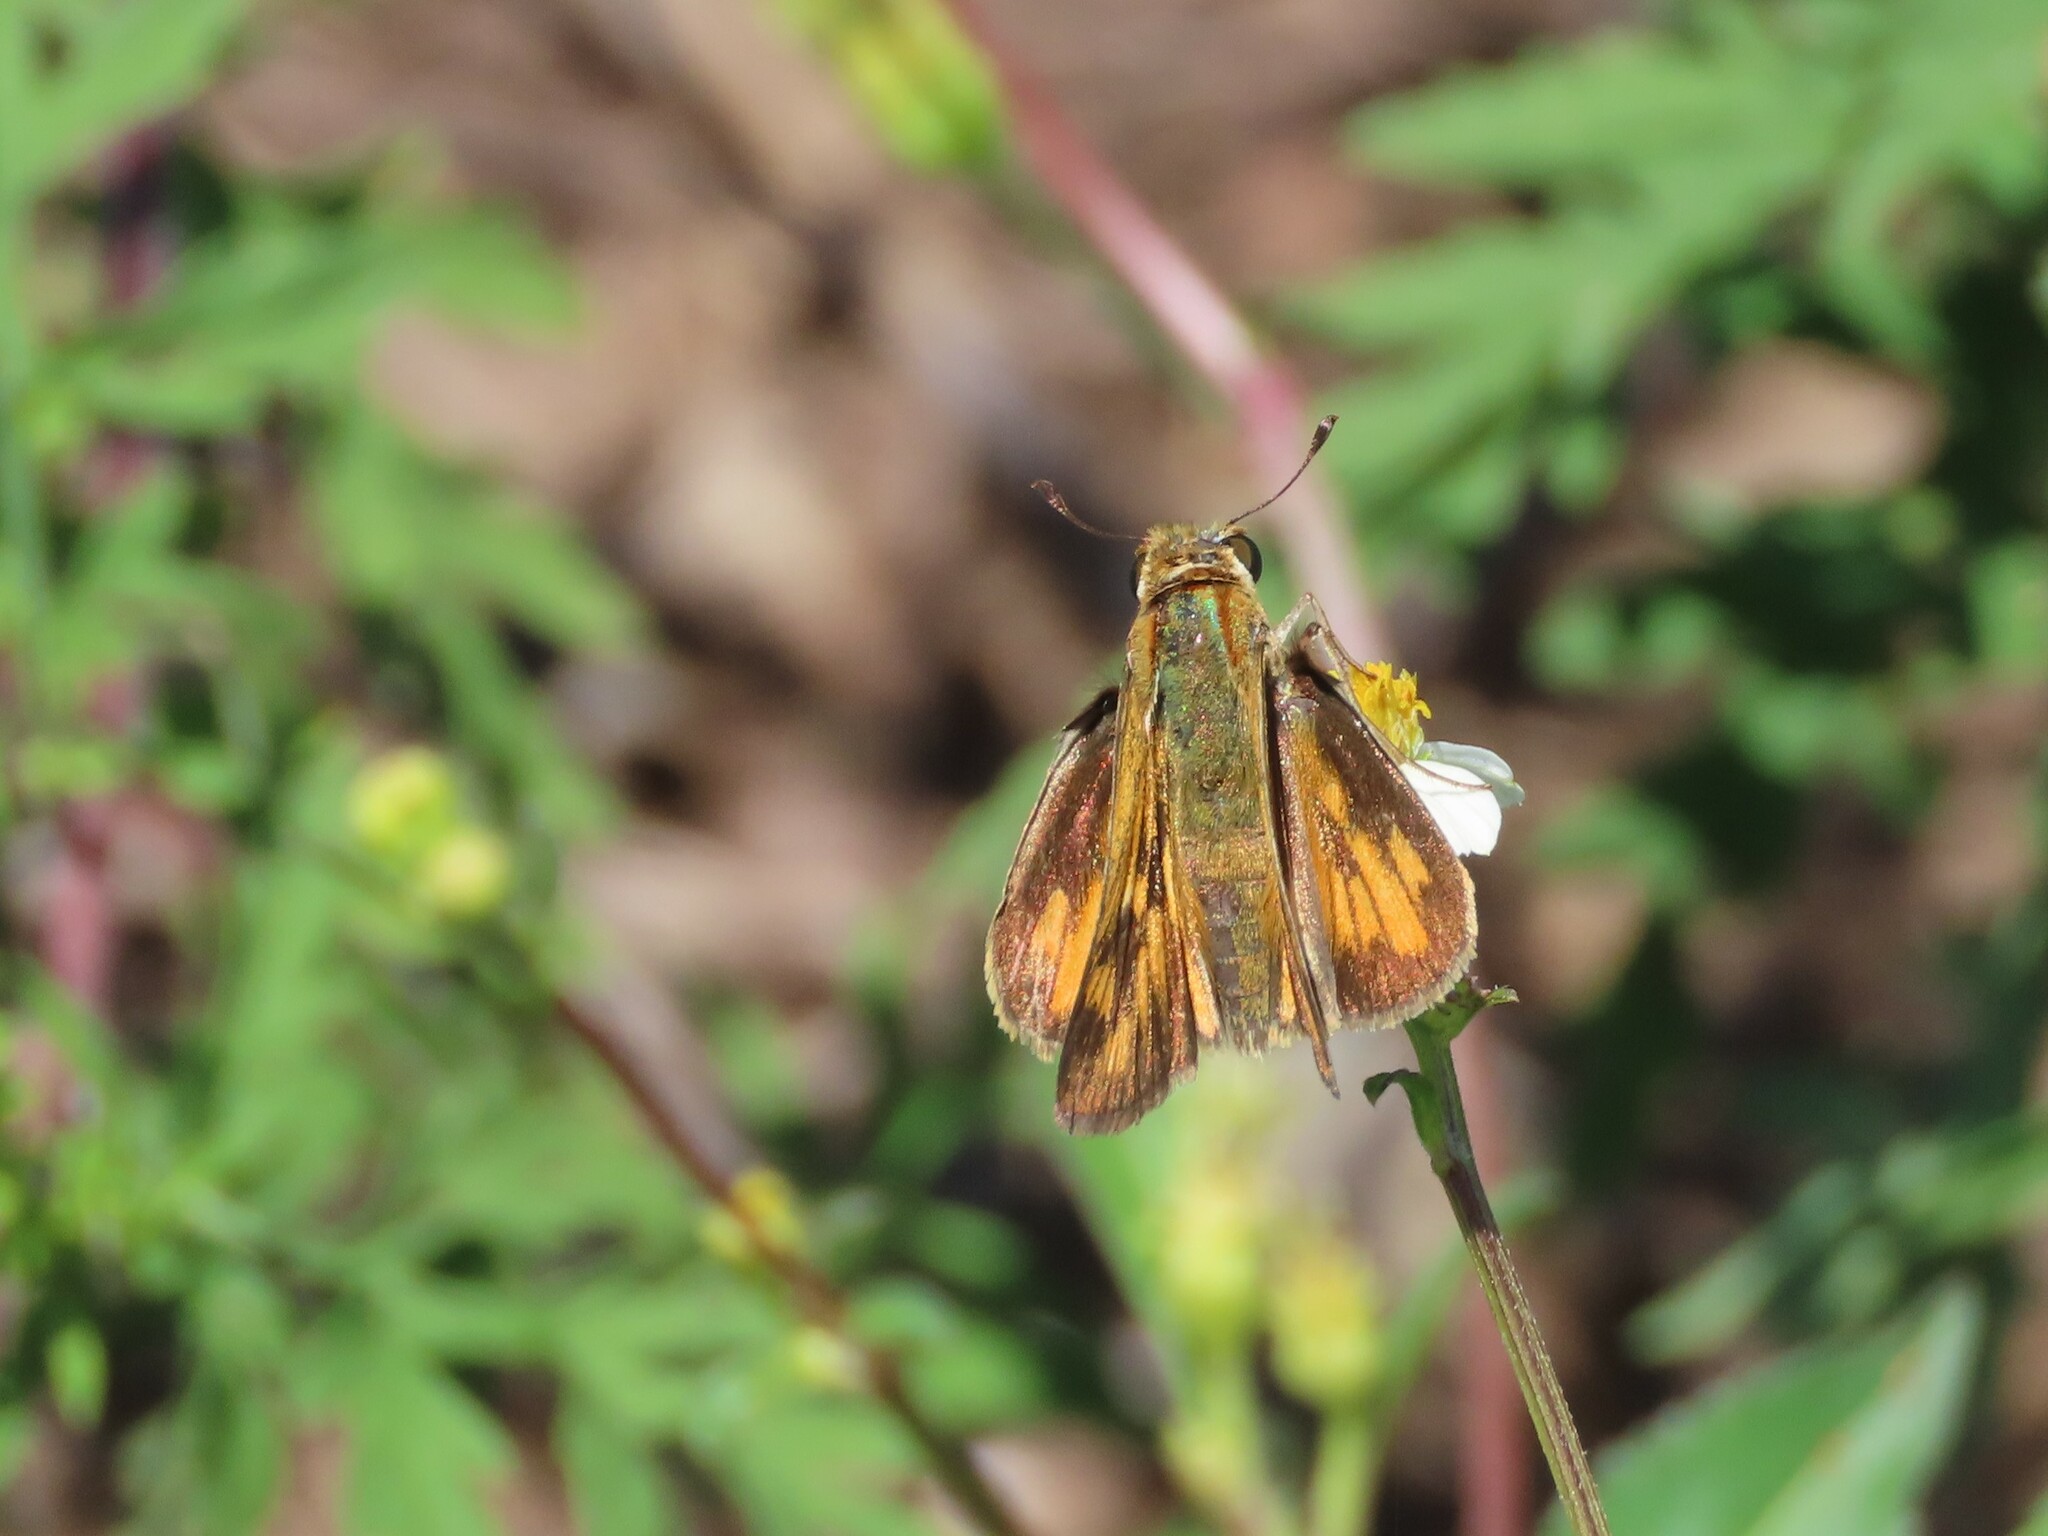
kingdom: Animalia
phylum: Arthropoda
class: Insecta
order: Lepidoptera
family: Hesperiidae
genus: Hylephila
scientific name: Hylephila phyleus
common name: Fiery skipper
